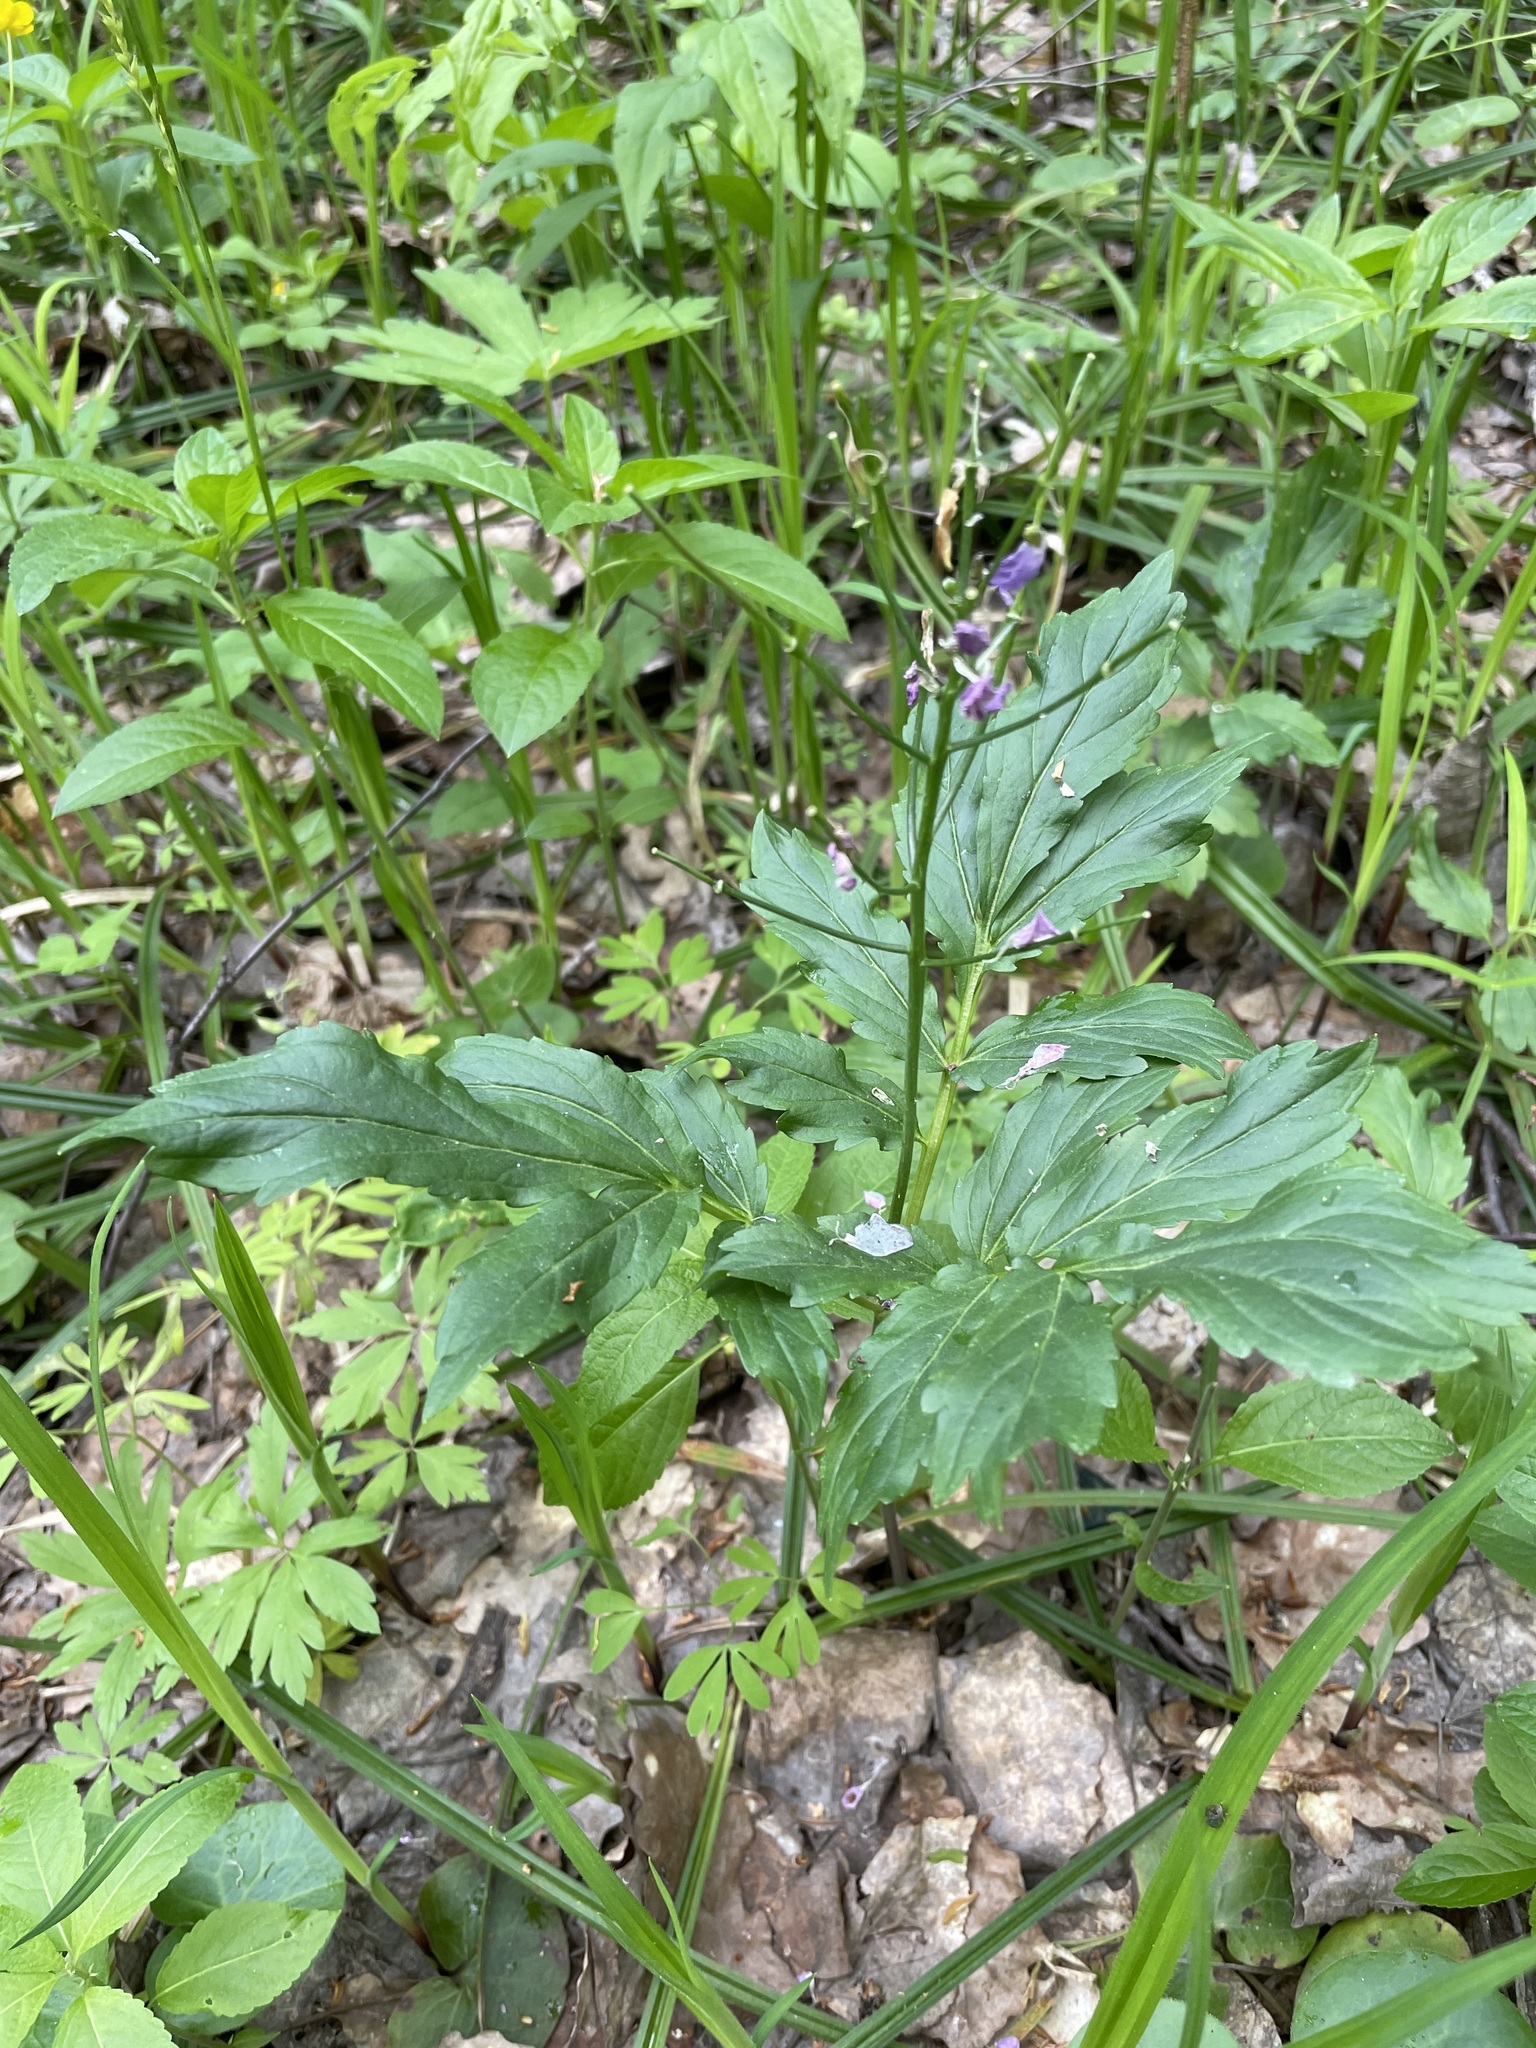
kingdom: Plantae
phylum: Tracheophyta
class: Magnoliopsida
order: Brassicales
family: Brassicaceae
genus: Cardamine
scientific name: Cardamine quinquefolia
